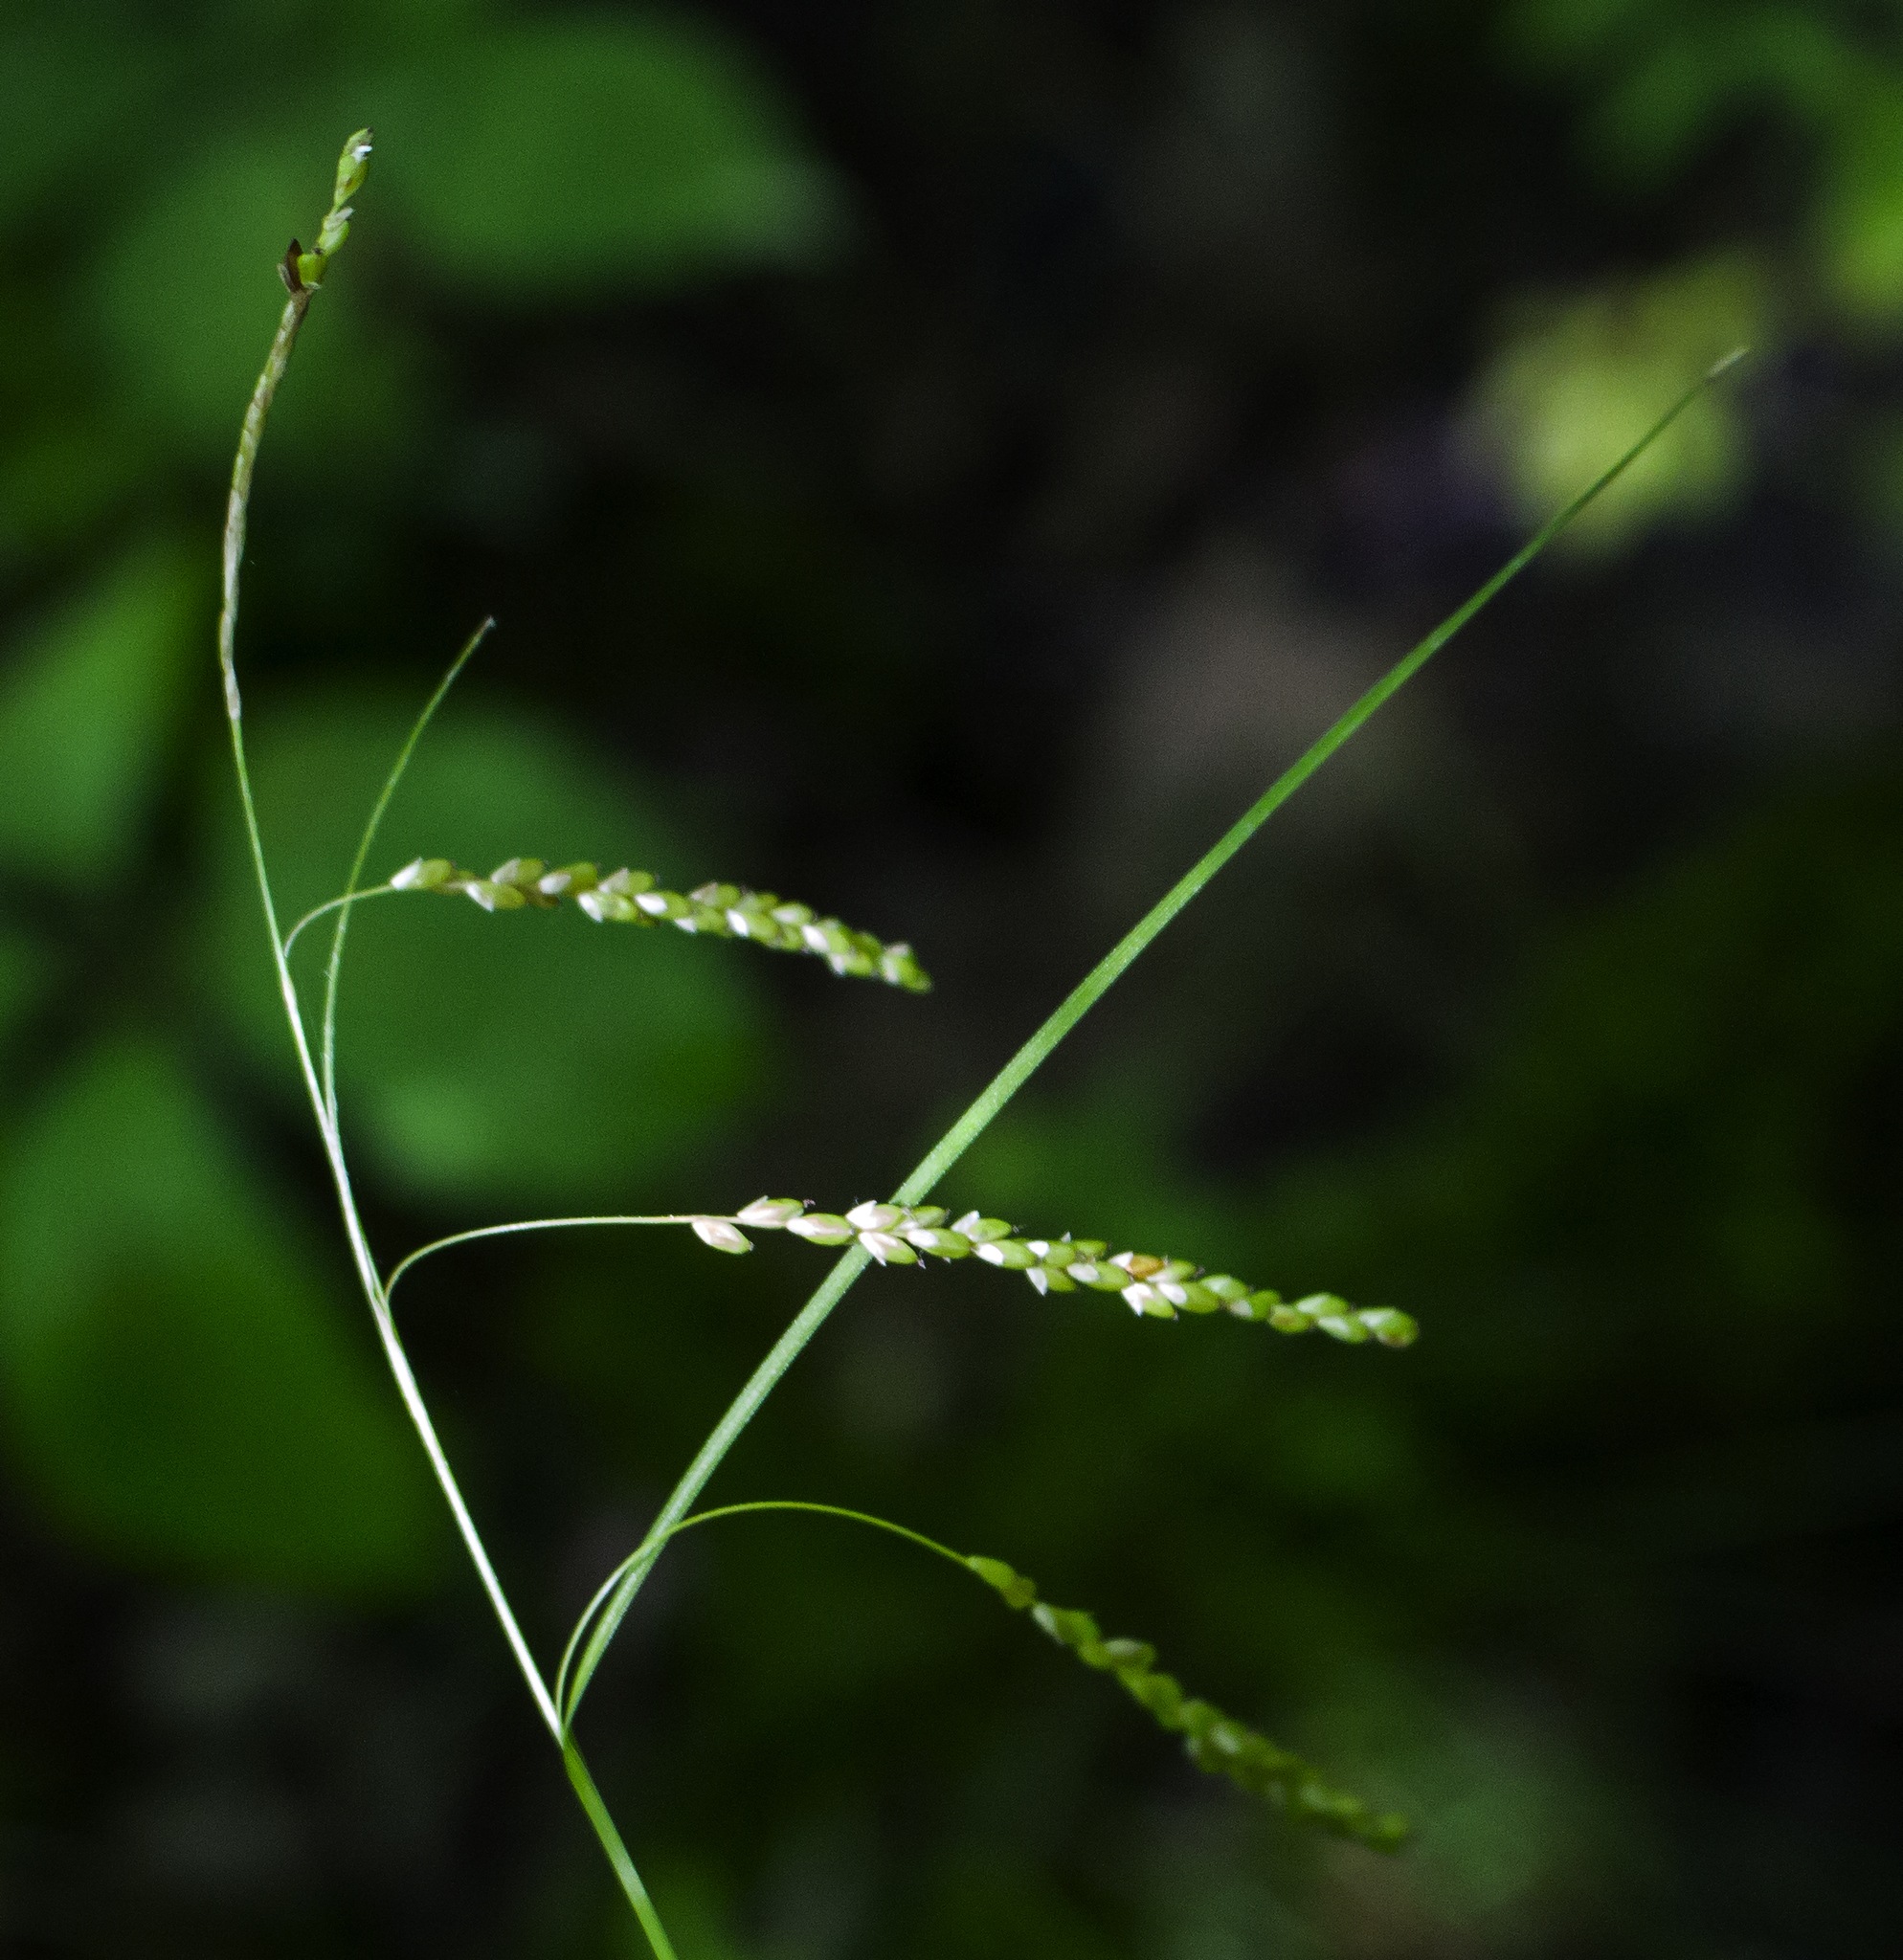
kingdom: Plantae
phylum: Tracheophyta
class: Liliopsida
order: Poales
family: Cyperaceae
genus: Carex
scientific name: Carex gracillima
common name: Graceful sedge
